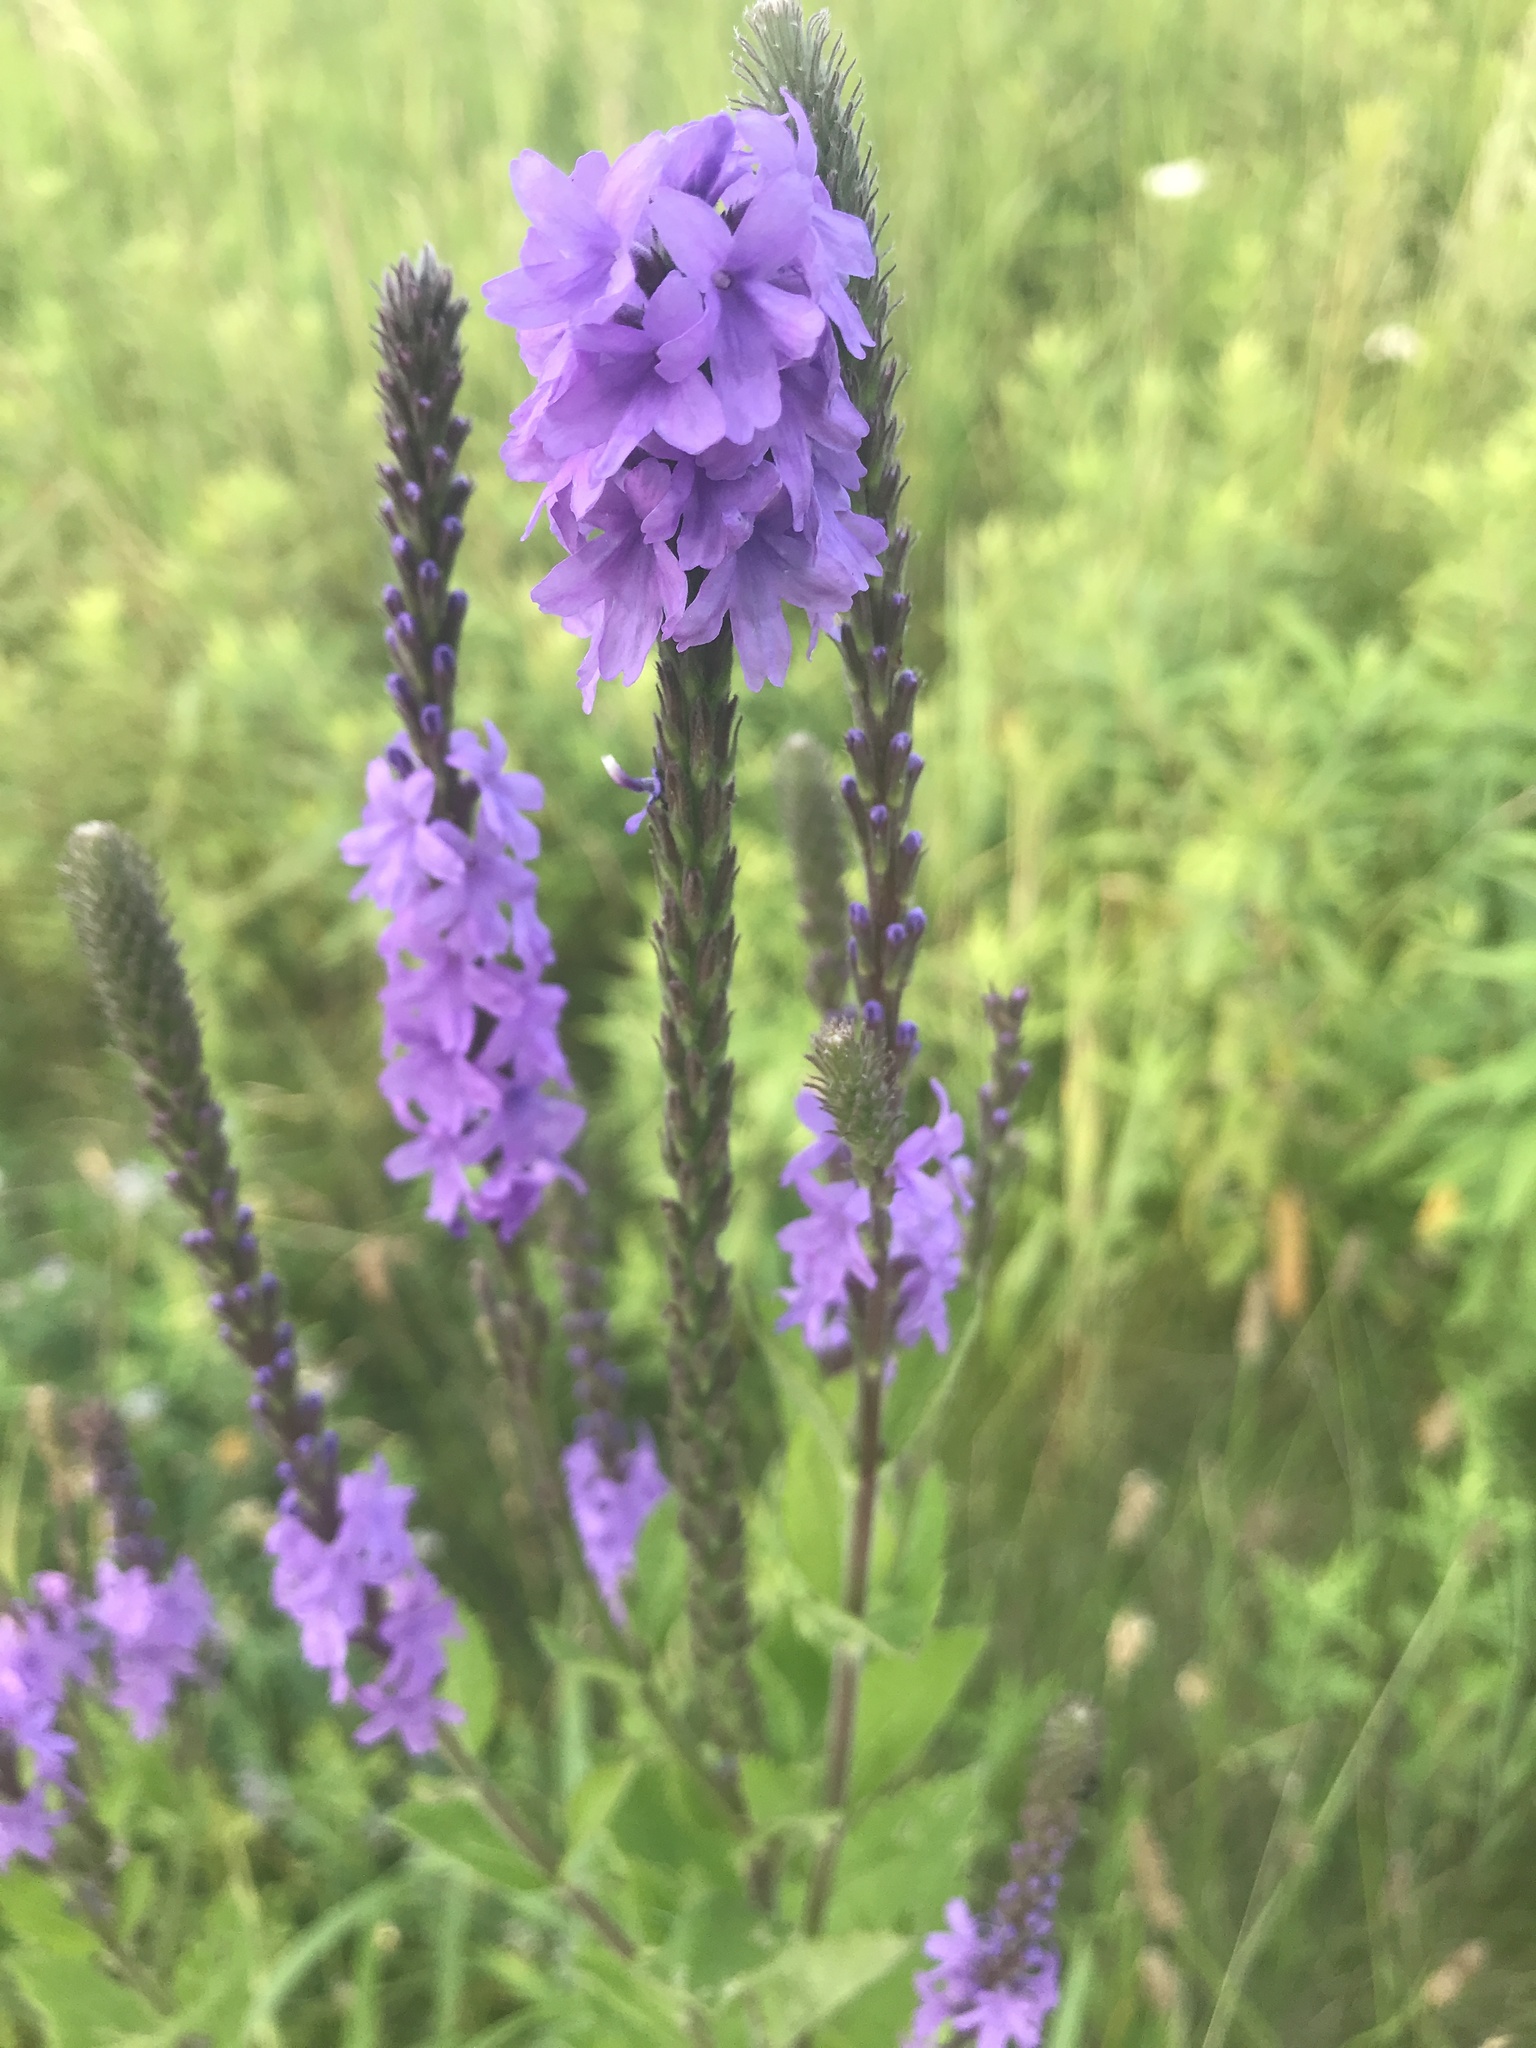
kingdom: Plantae
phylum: Tracheophyta
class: Magnoliopsida
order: Lamiales
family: Verbenaceae
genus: Verbena
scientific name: Verbena stricta
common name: Hoary vervain
